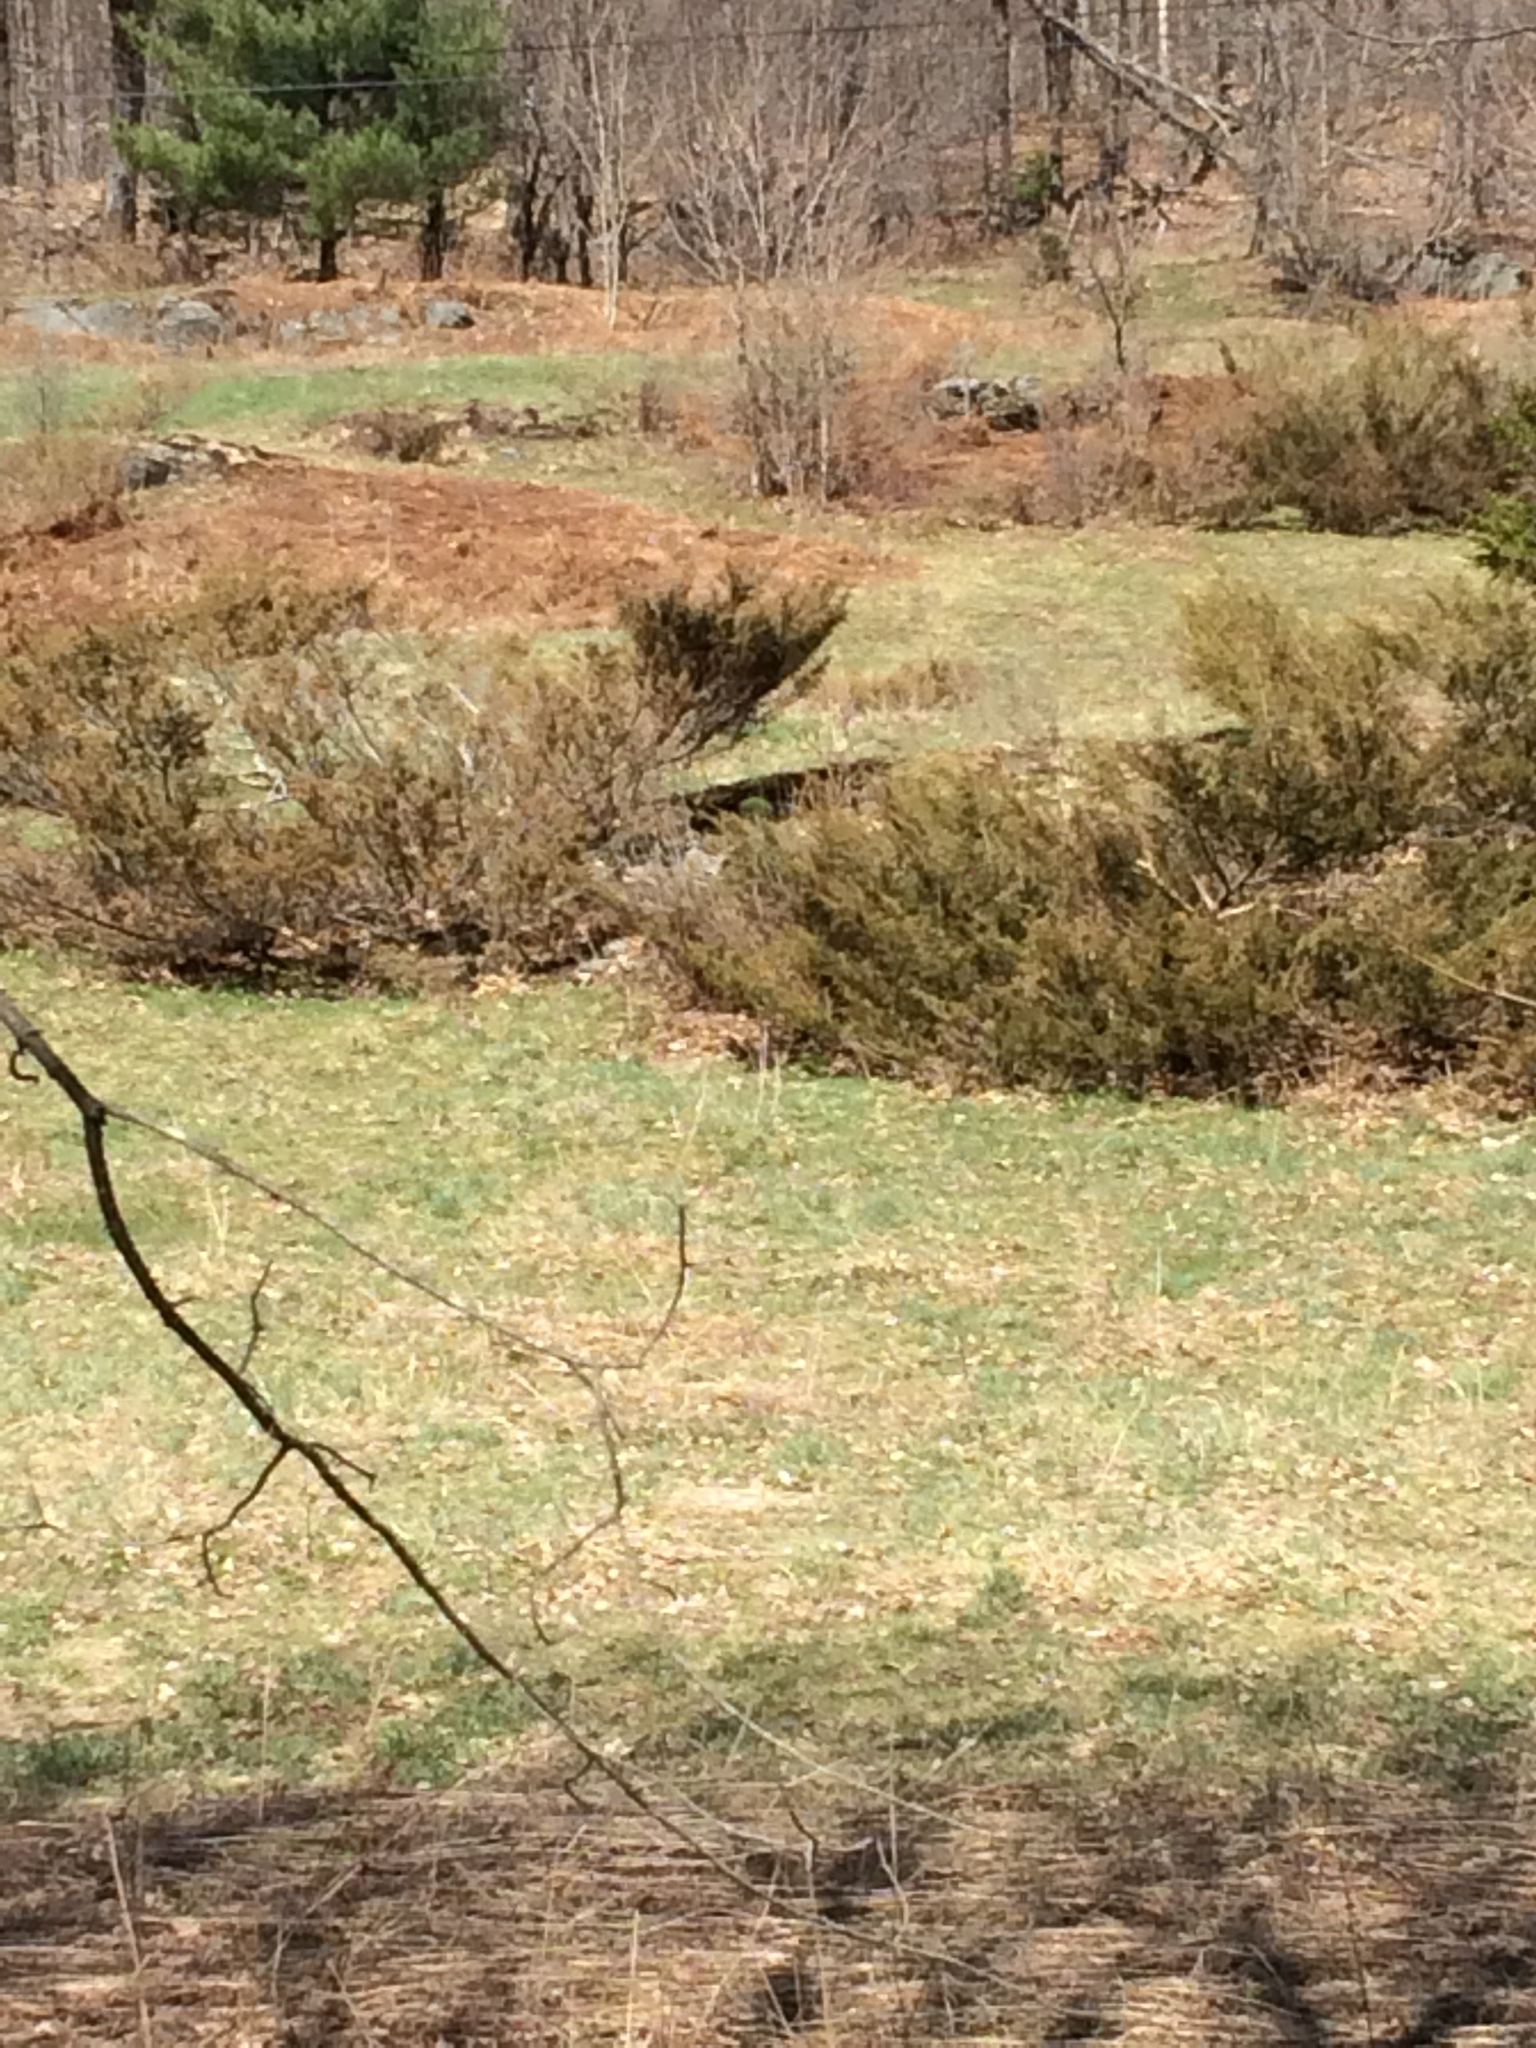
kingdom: Plantae
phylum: Tracheophyta
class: Pinopsida
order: Pinales
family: Cupressaceae
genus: Juniperus
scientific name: Juniperus communis
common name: Common juniper
